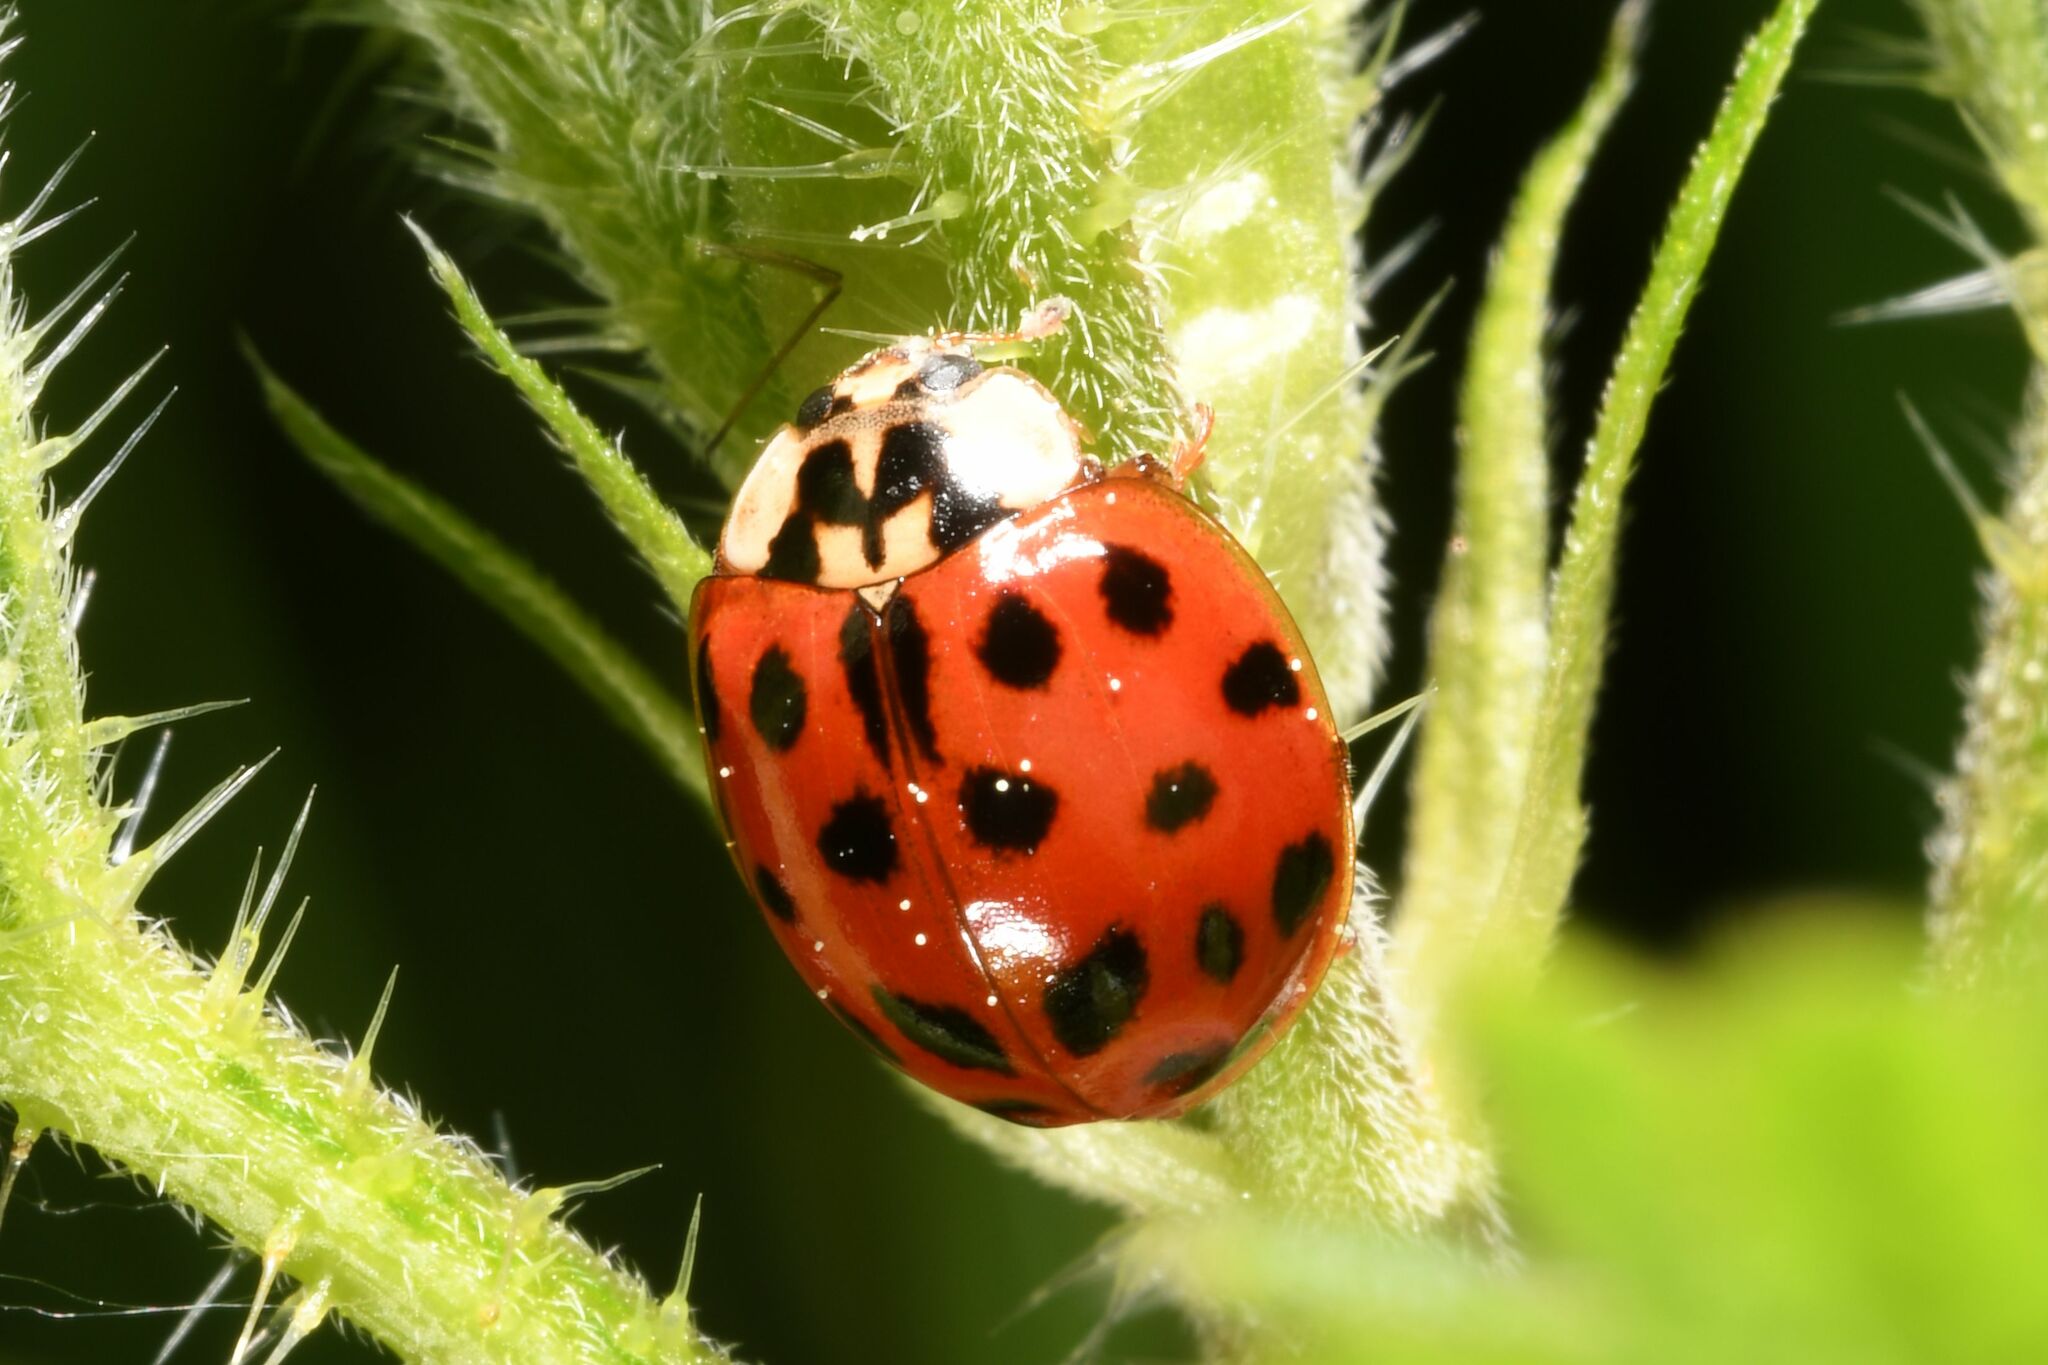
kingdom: Animalia
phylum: Arthropoda
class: Insecta
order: Coleoptera
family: Coccinellidae
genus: Harmonia
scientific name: Harmonia axyridis
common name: Harlequin ladybird
